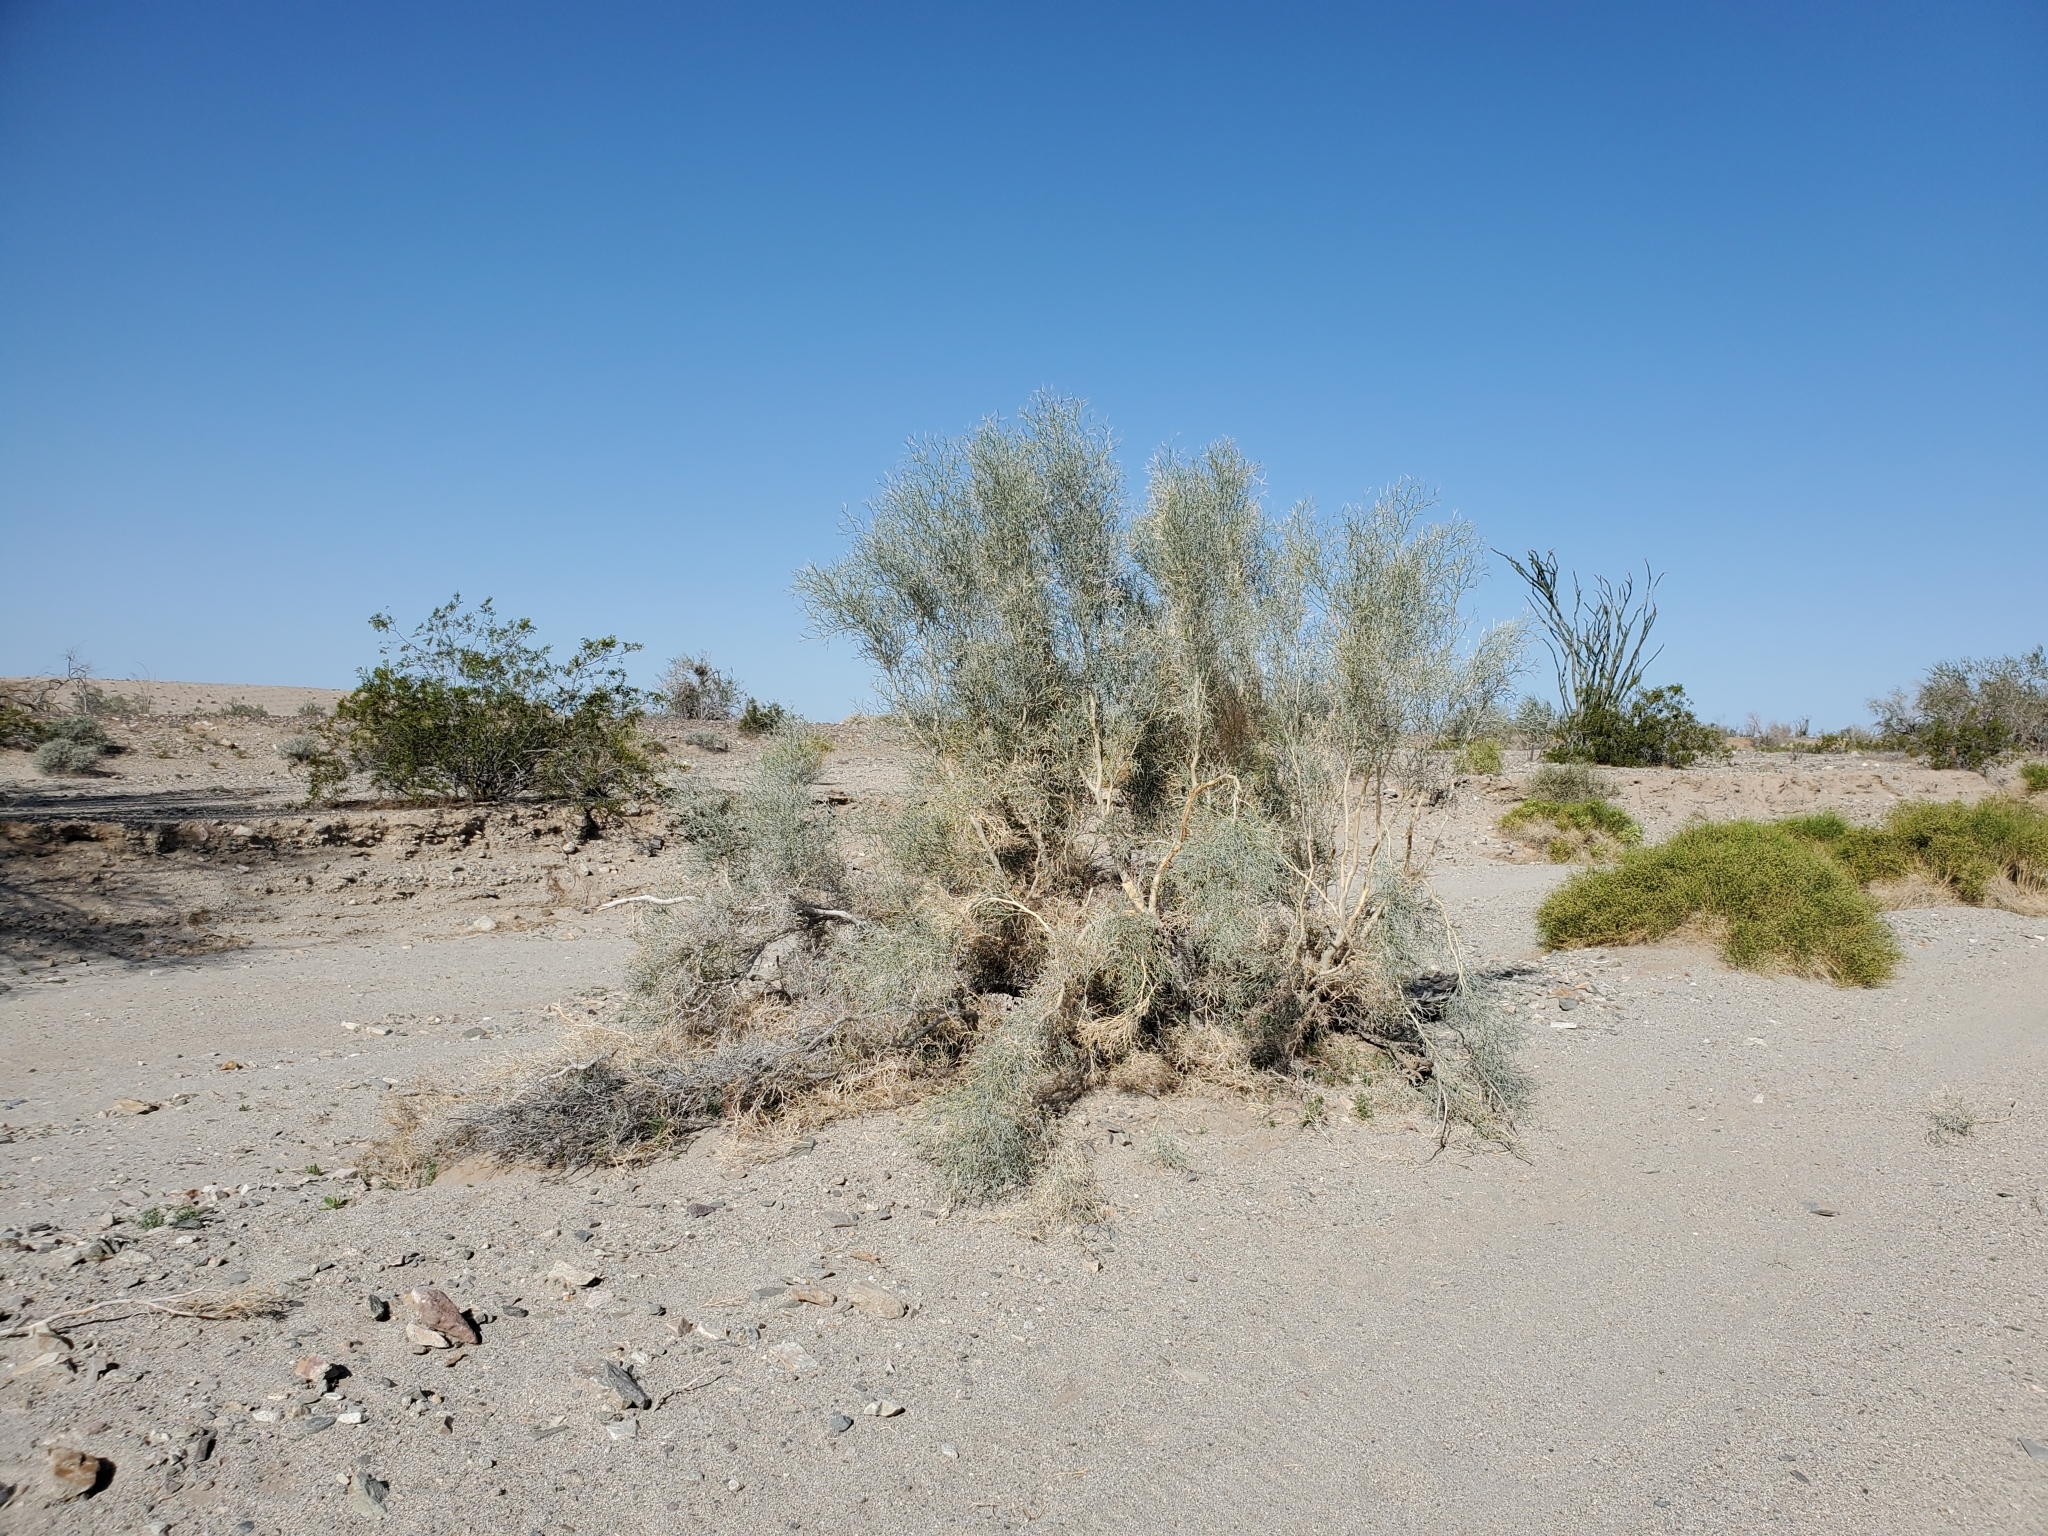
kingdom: Plantae
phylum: Tracheophyta
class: Magnoliopsida
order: Fabales
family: Fabaceae
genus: Psorothamnus
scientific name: Psorothamnus spinosus
